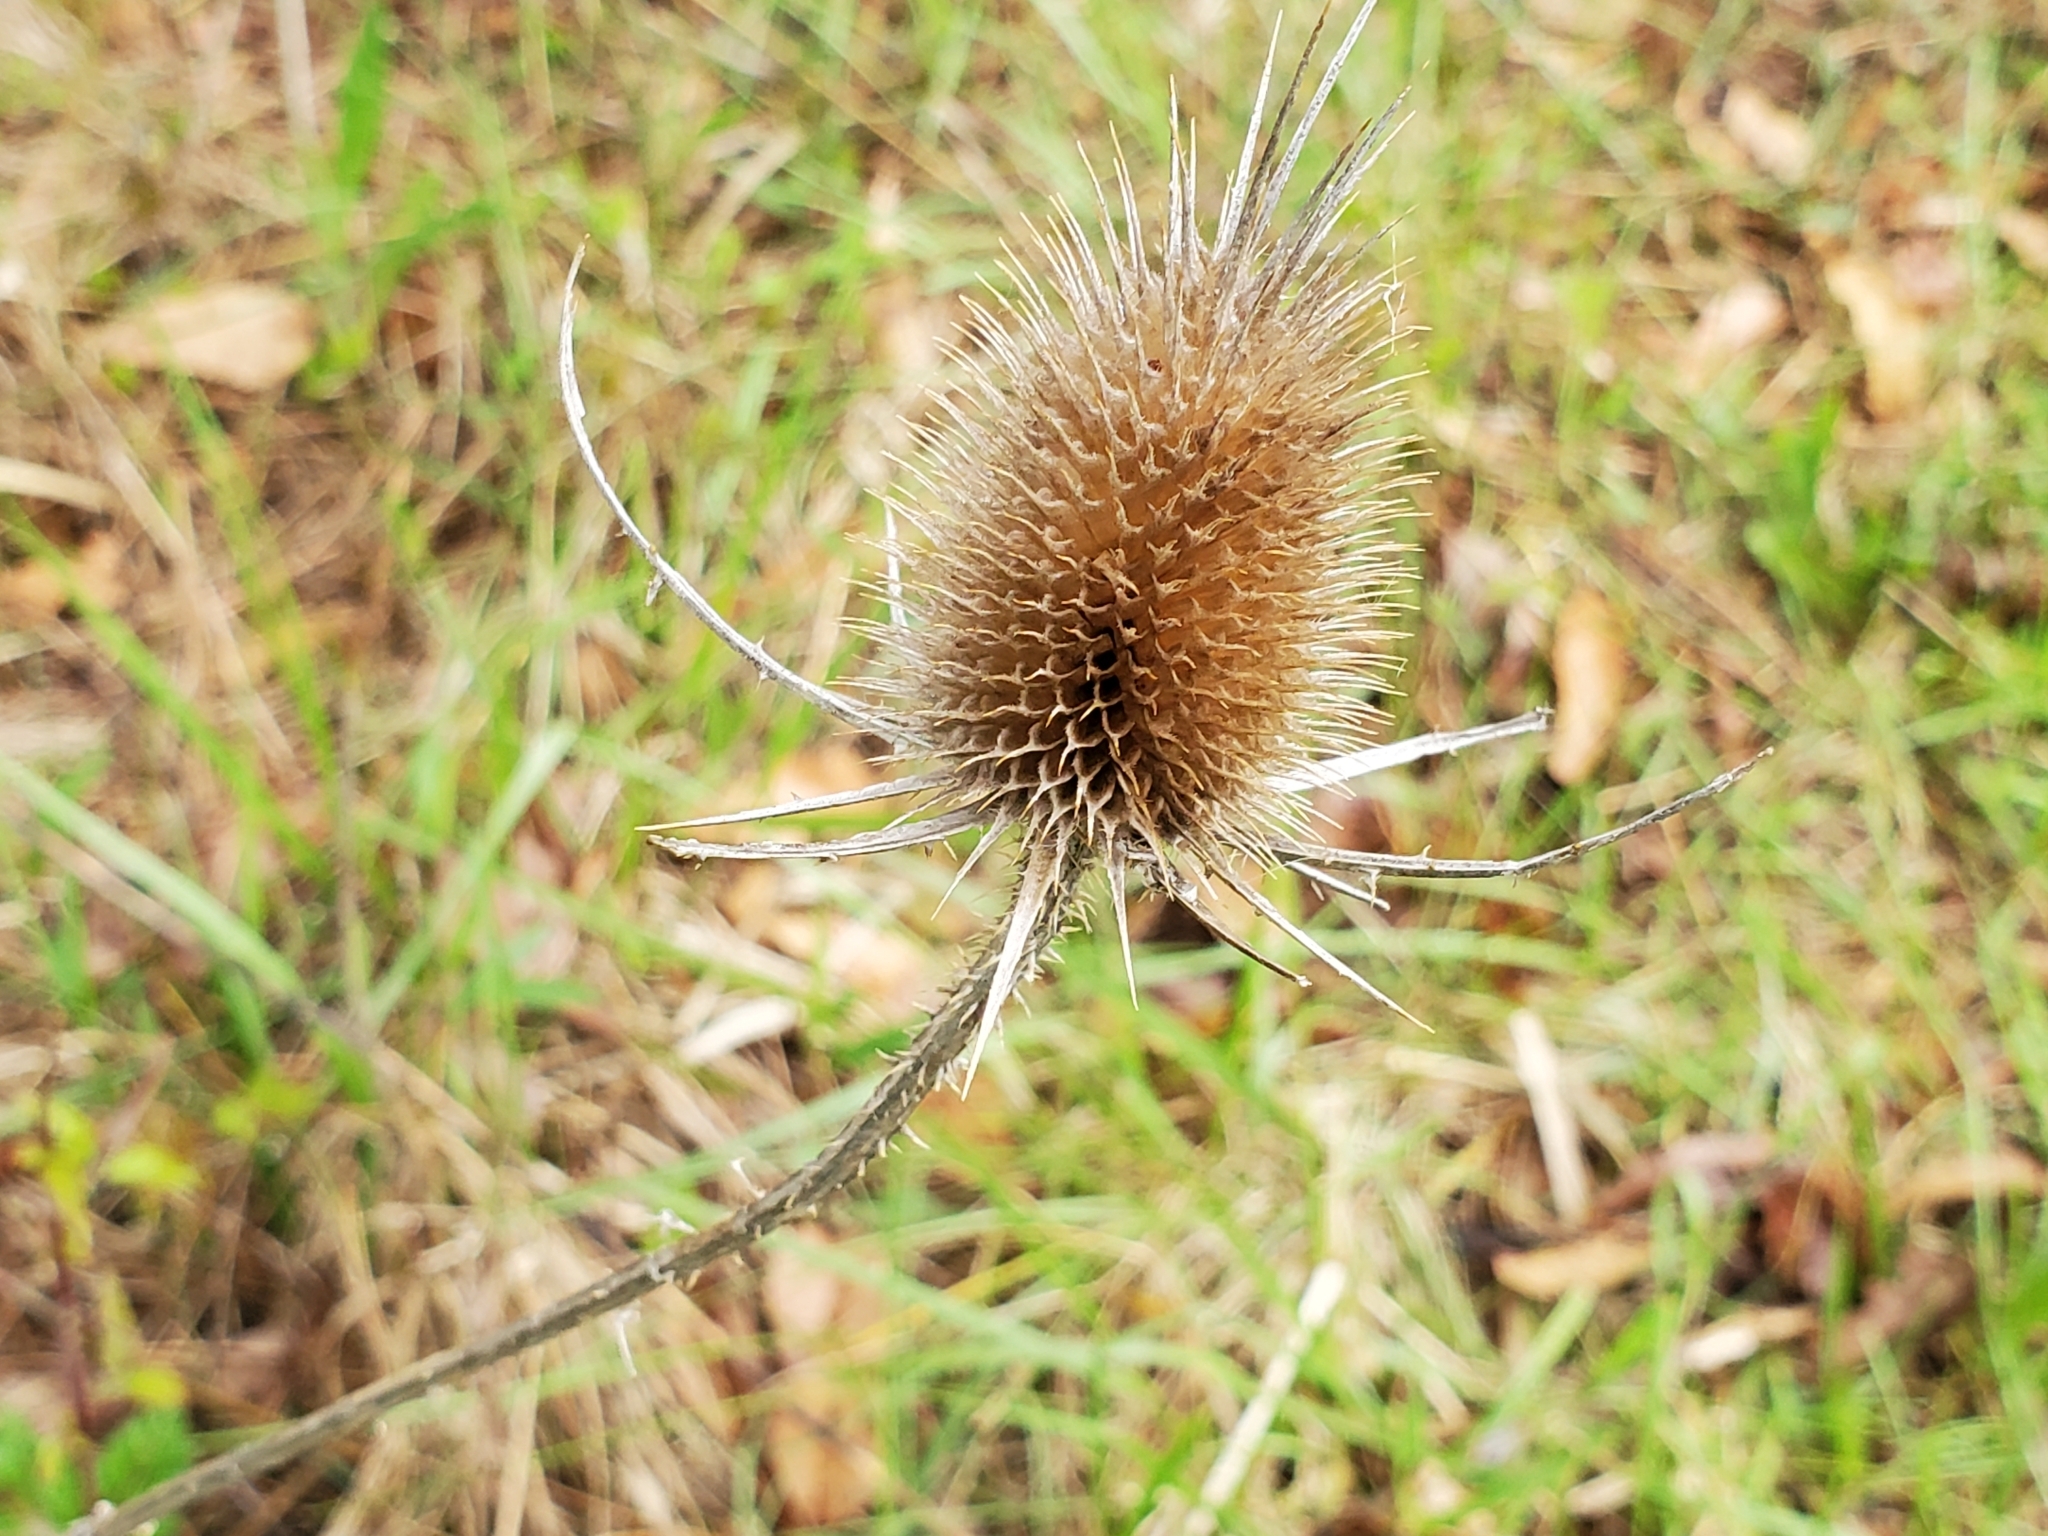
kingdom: Plantae
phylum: Tracheophyta
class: Magnoliopsida
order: Dipsacales
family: Caprifoliaceae
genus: Dipsacus
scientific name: Dipsacus fullonum
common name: Teasel
